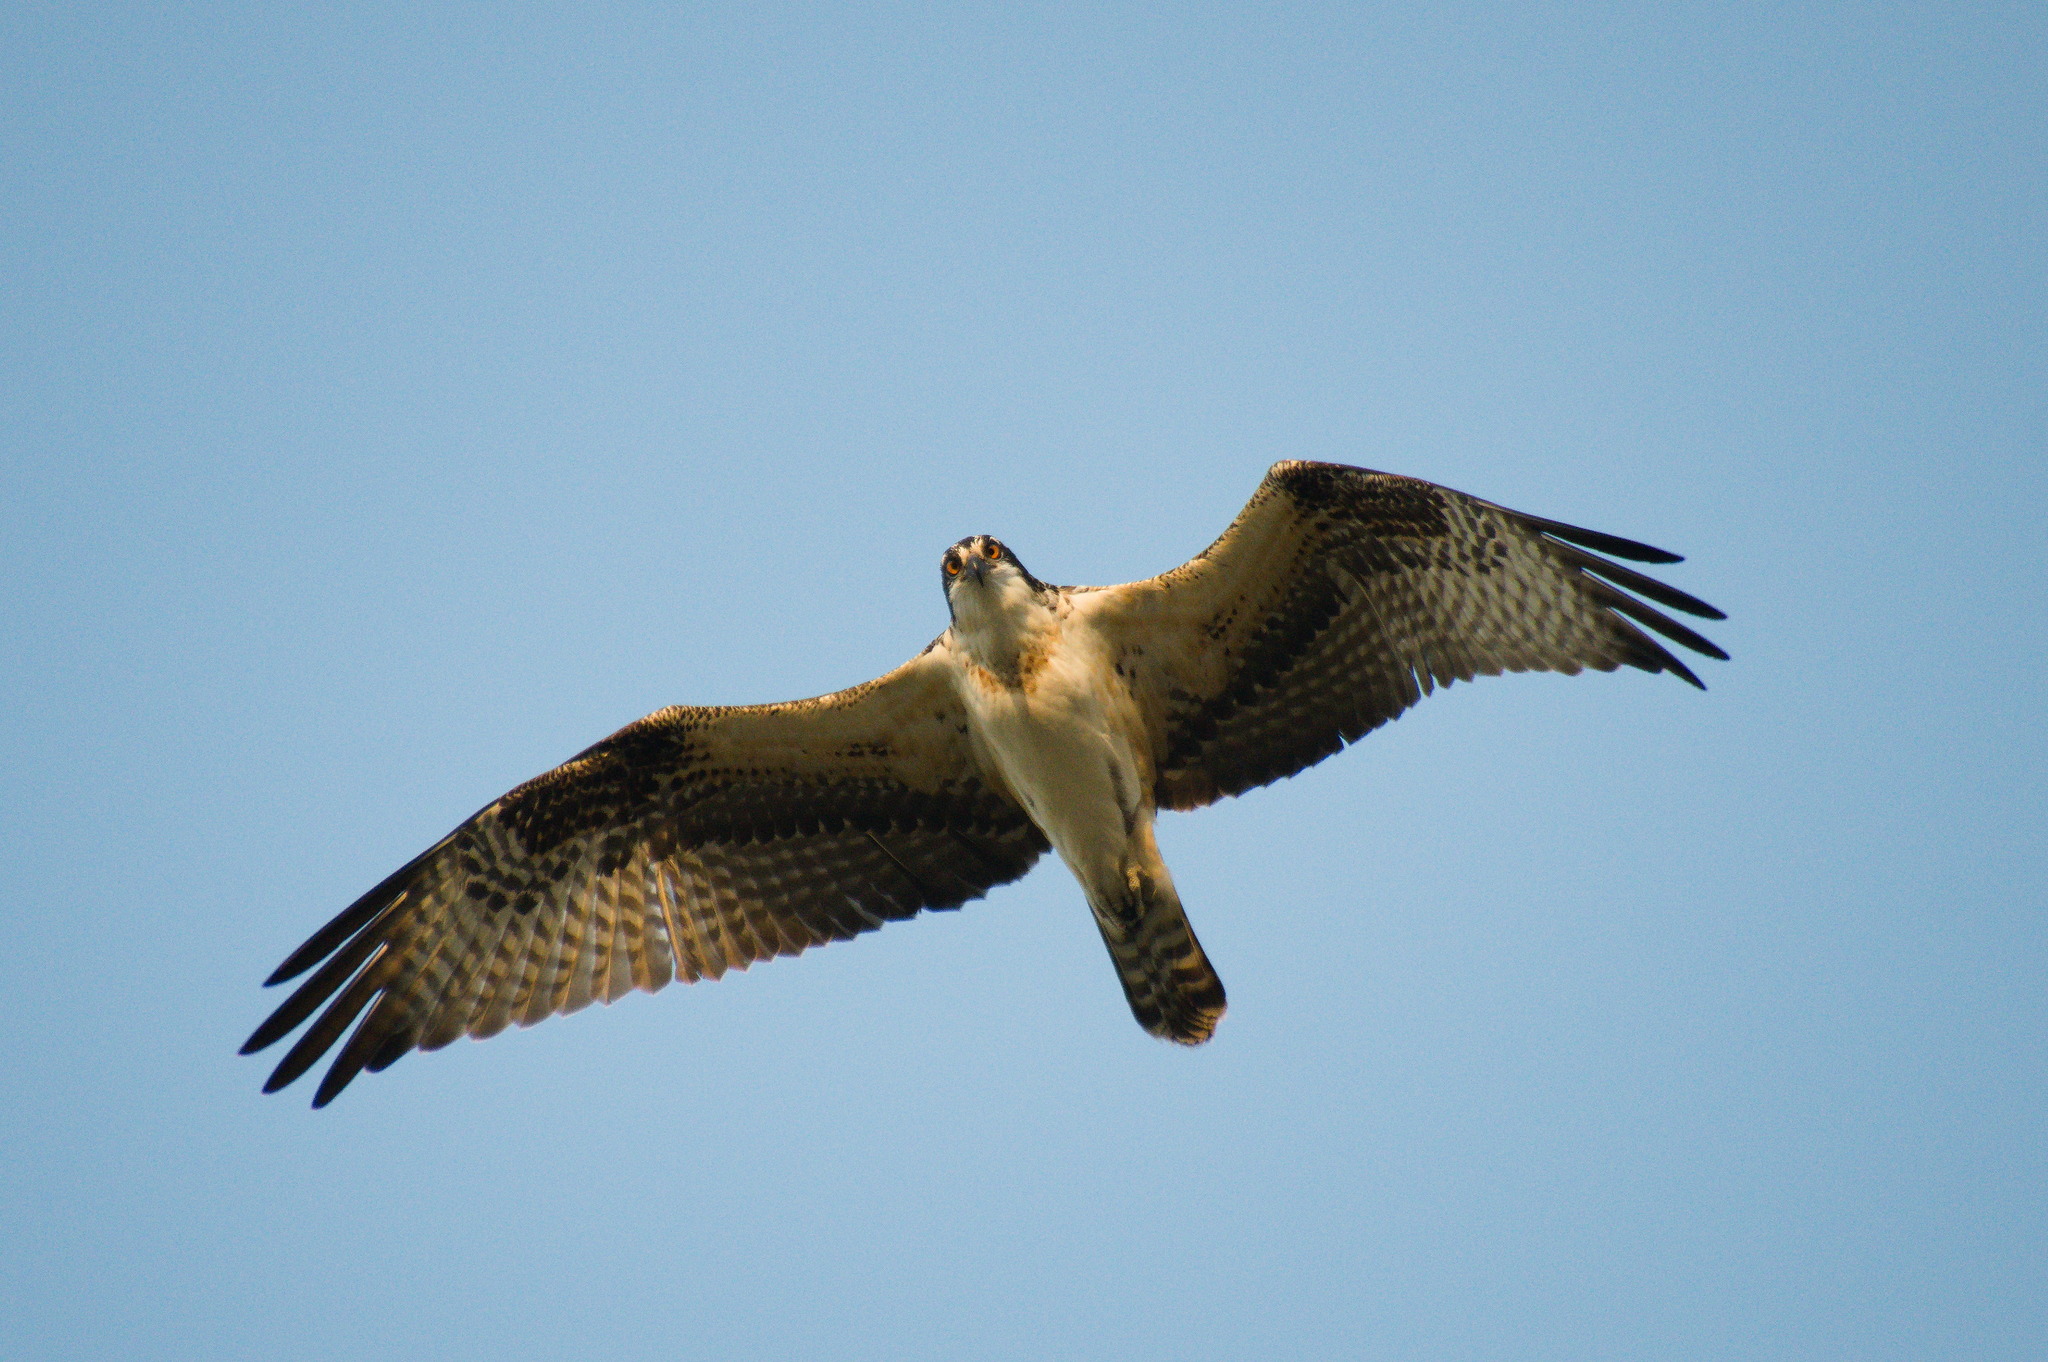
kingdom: Animalia
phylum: Chordata
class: Aves
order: Accipitriformes
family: Pandionidae
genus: Pandion
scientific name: Pandion haliaetus
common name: Osprey
